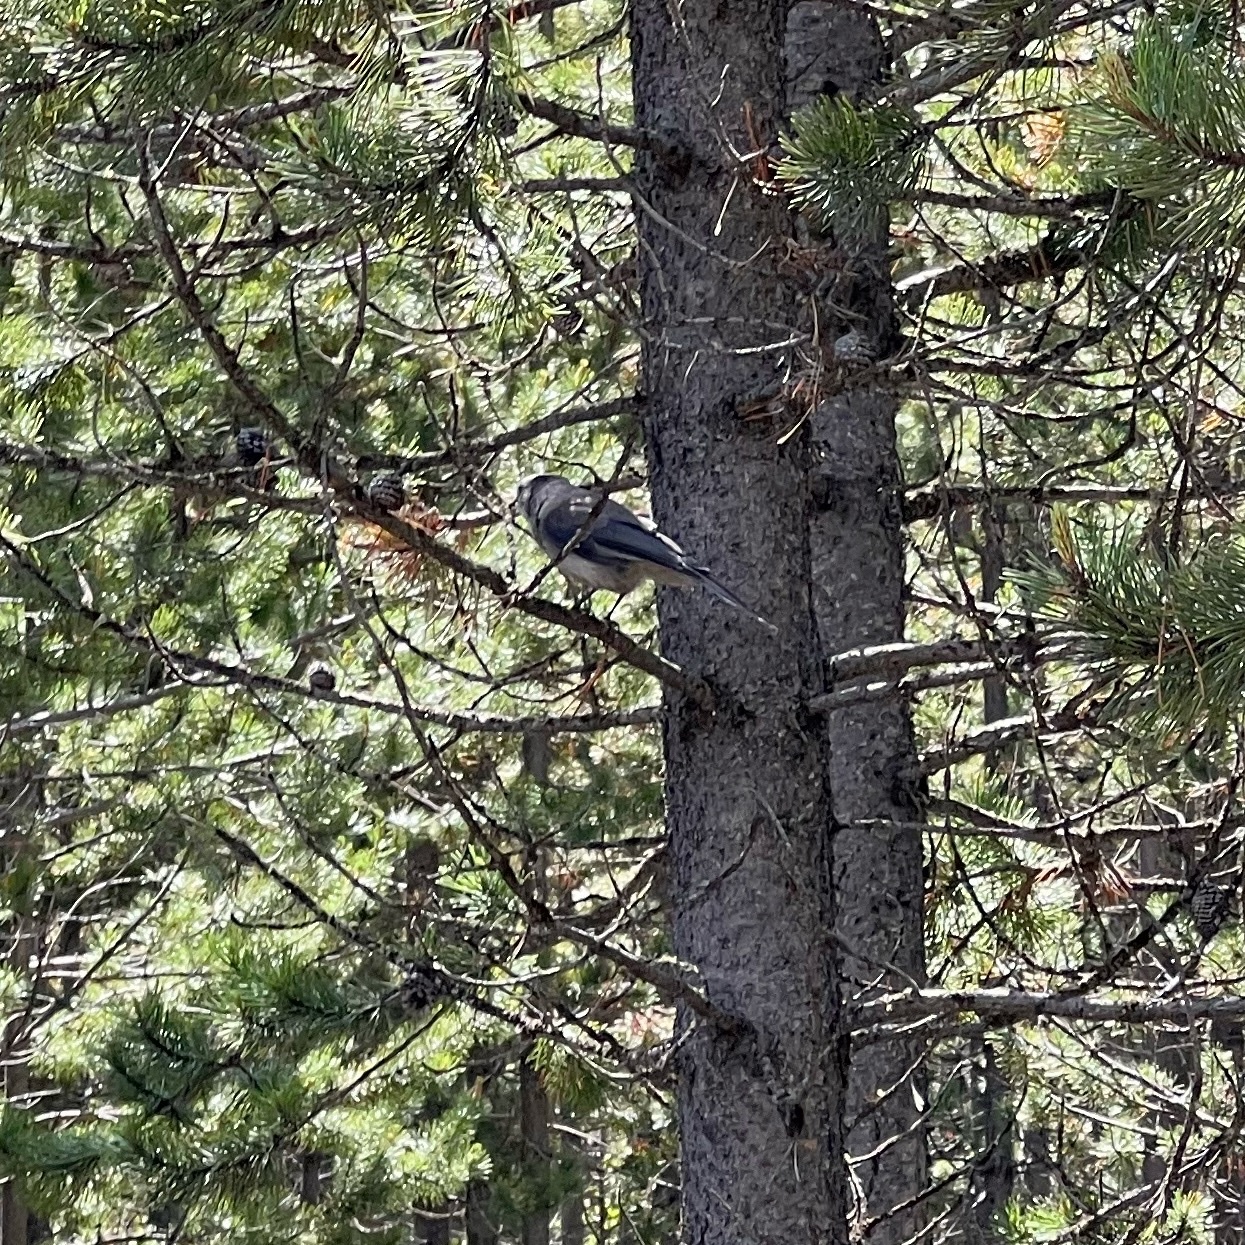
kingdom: Animalia
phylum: Chordata
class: Aves
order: Passeriformes
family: Corvidae
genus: Perisoreus
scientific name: Perisoreus canadensis
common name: Gray jay
